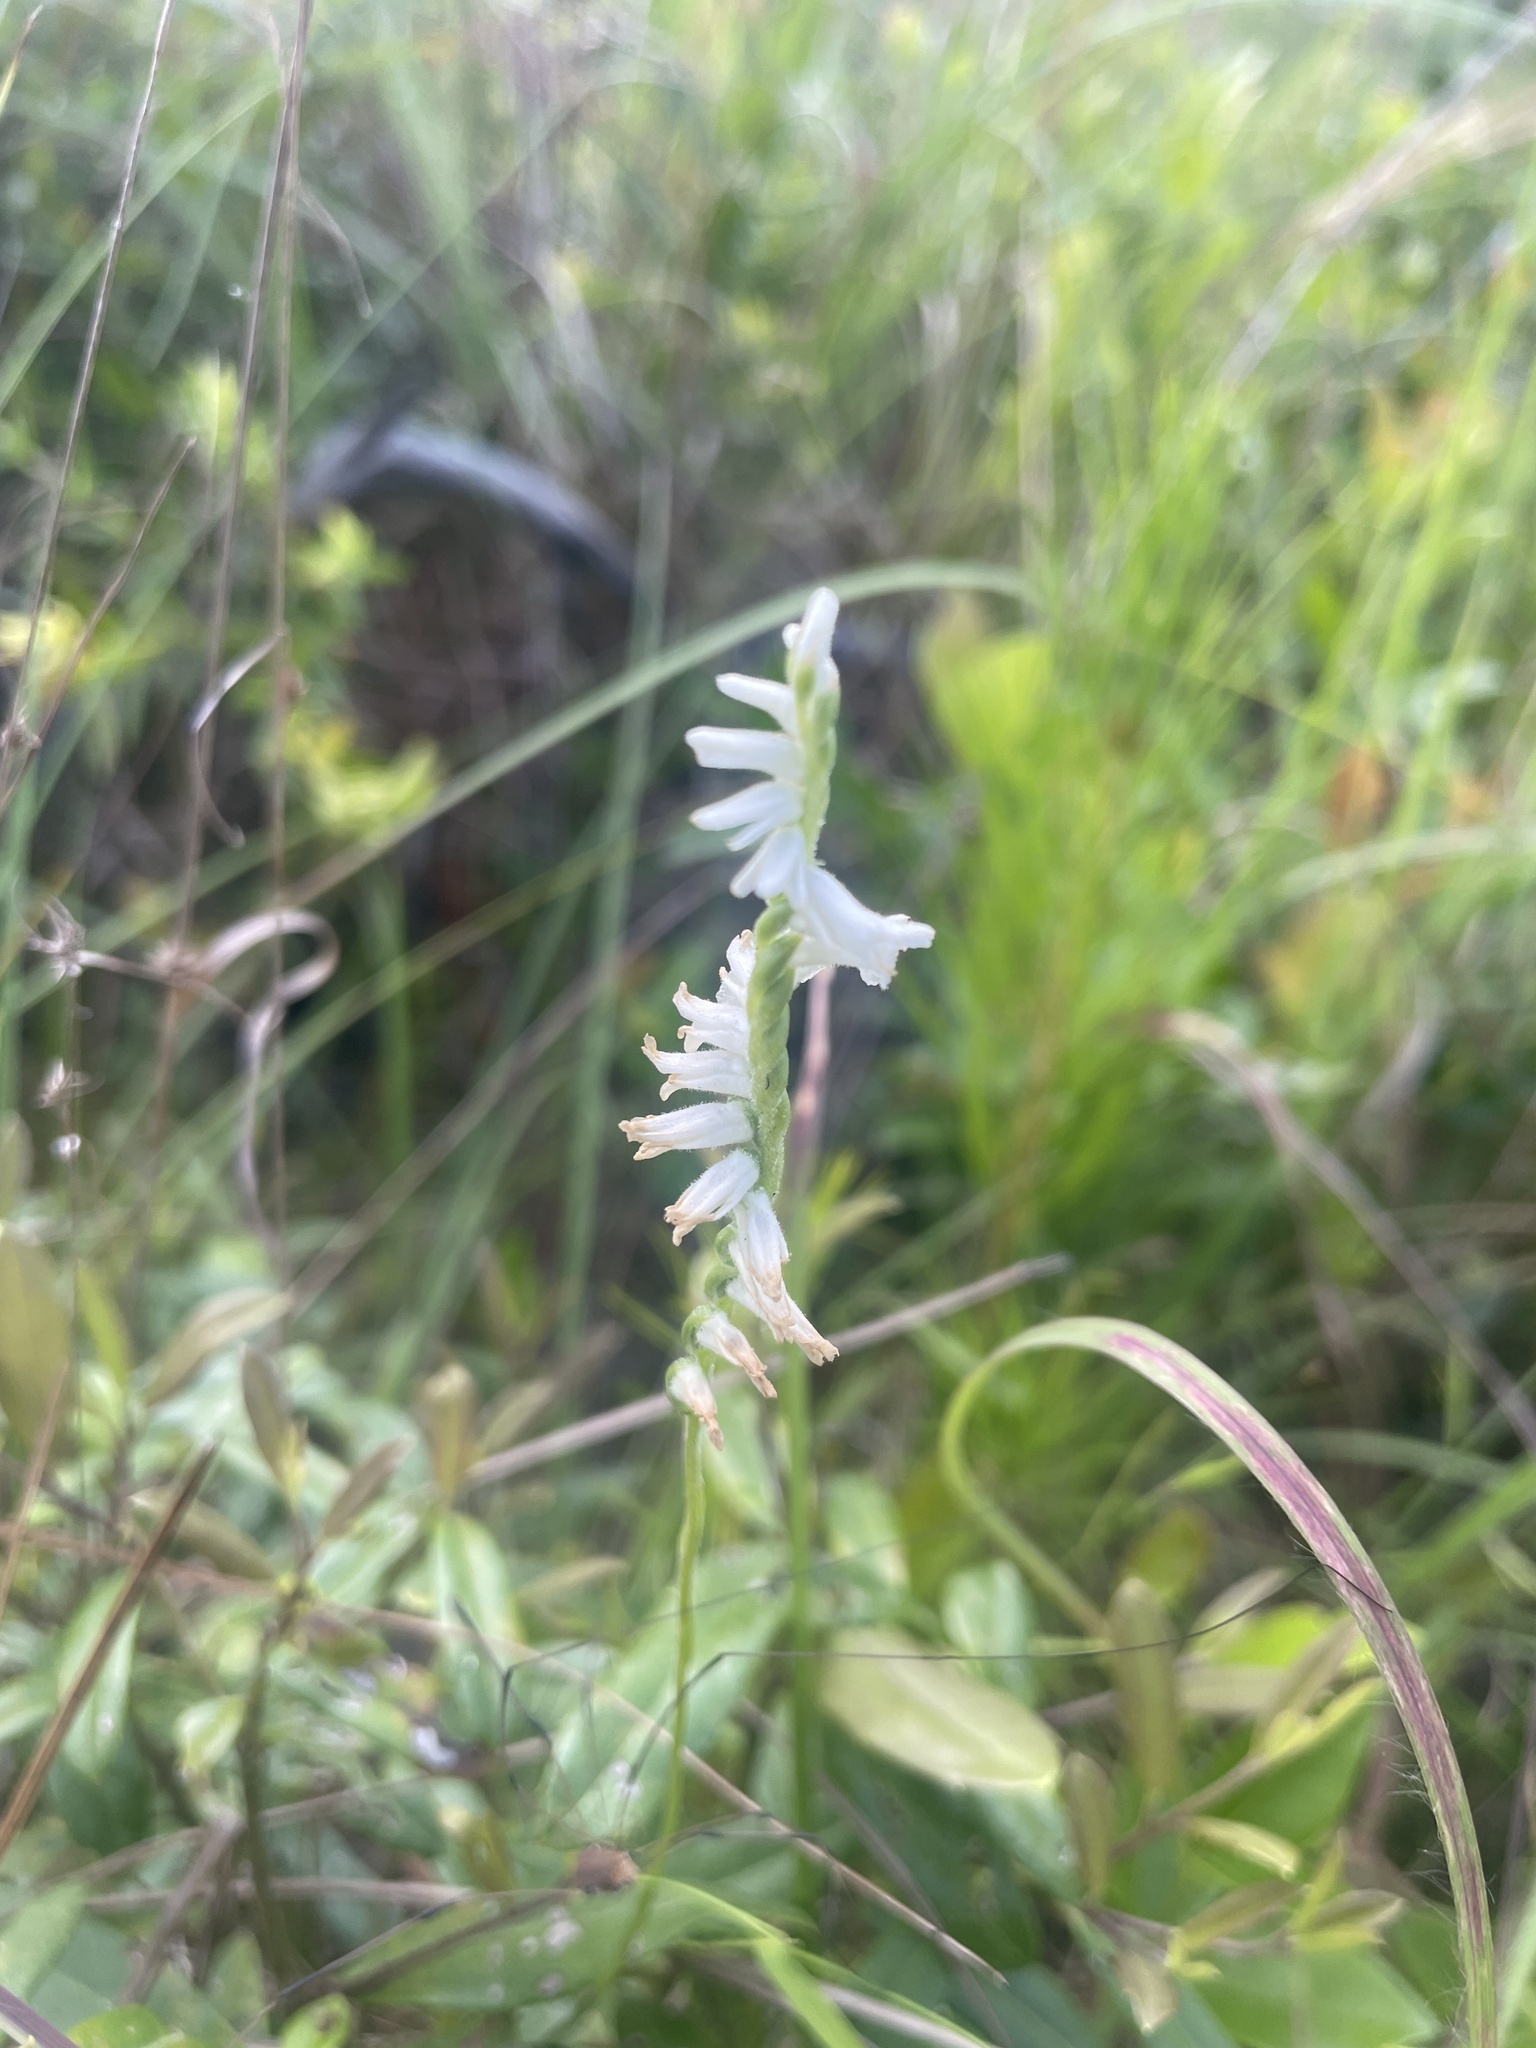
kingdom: Plantae
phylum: Tracheophyta
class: Liliopsida
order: Asparagales
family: Orchidaceae
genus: Spiranthes
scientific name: Spiranthes praecox
